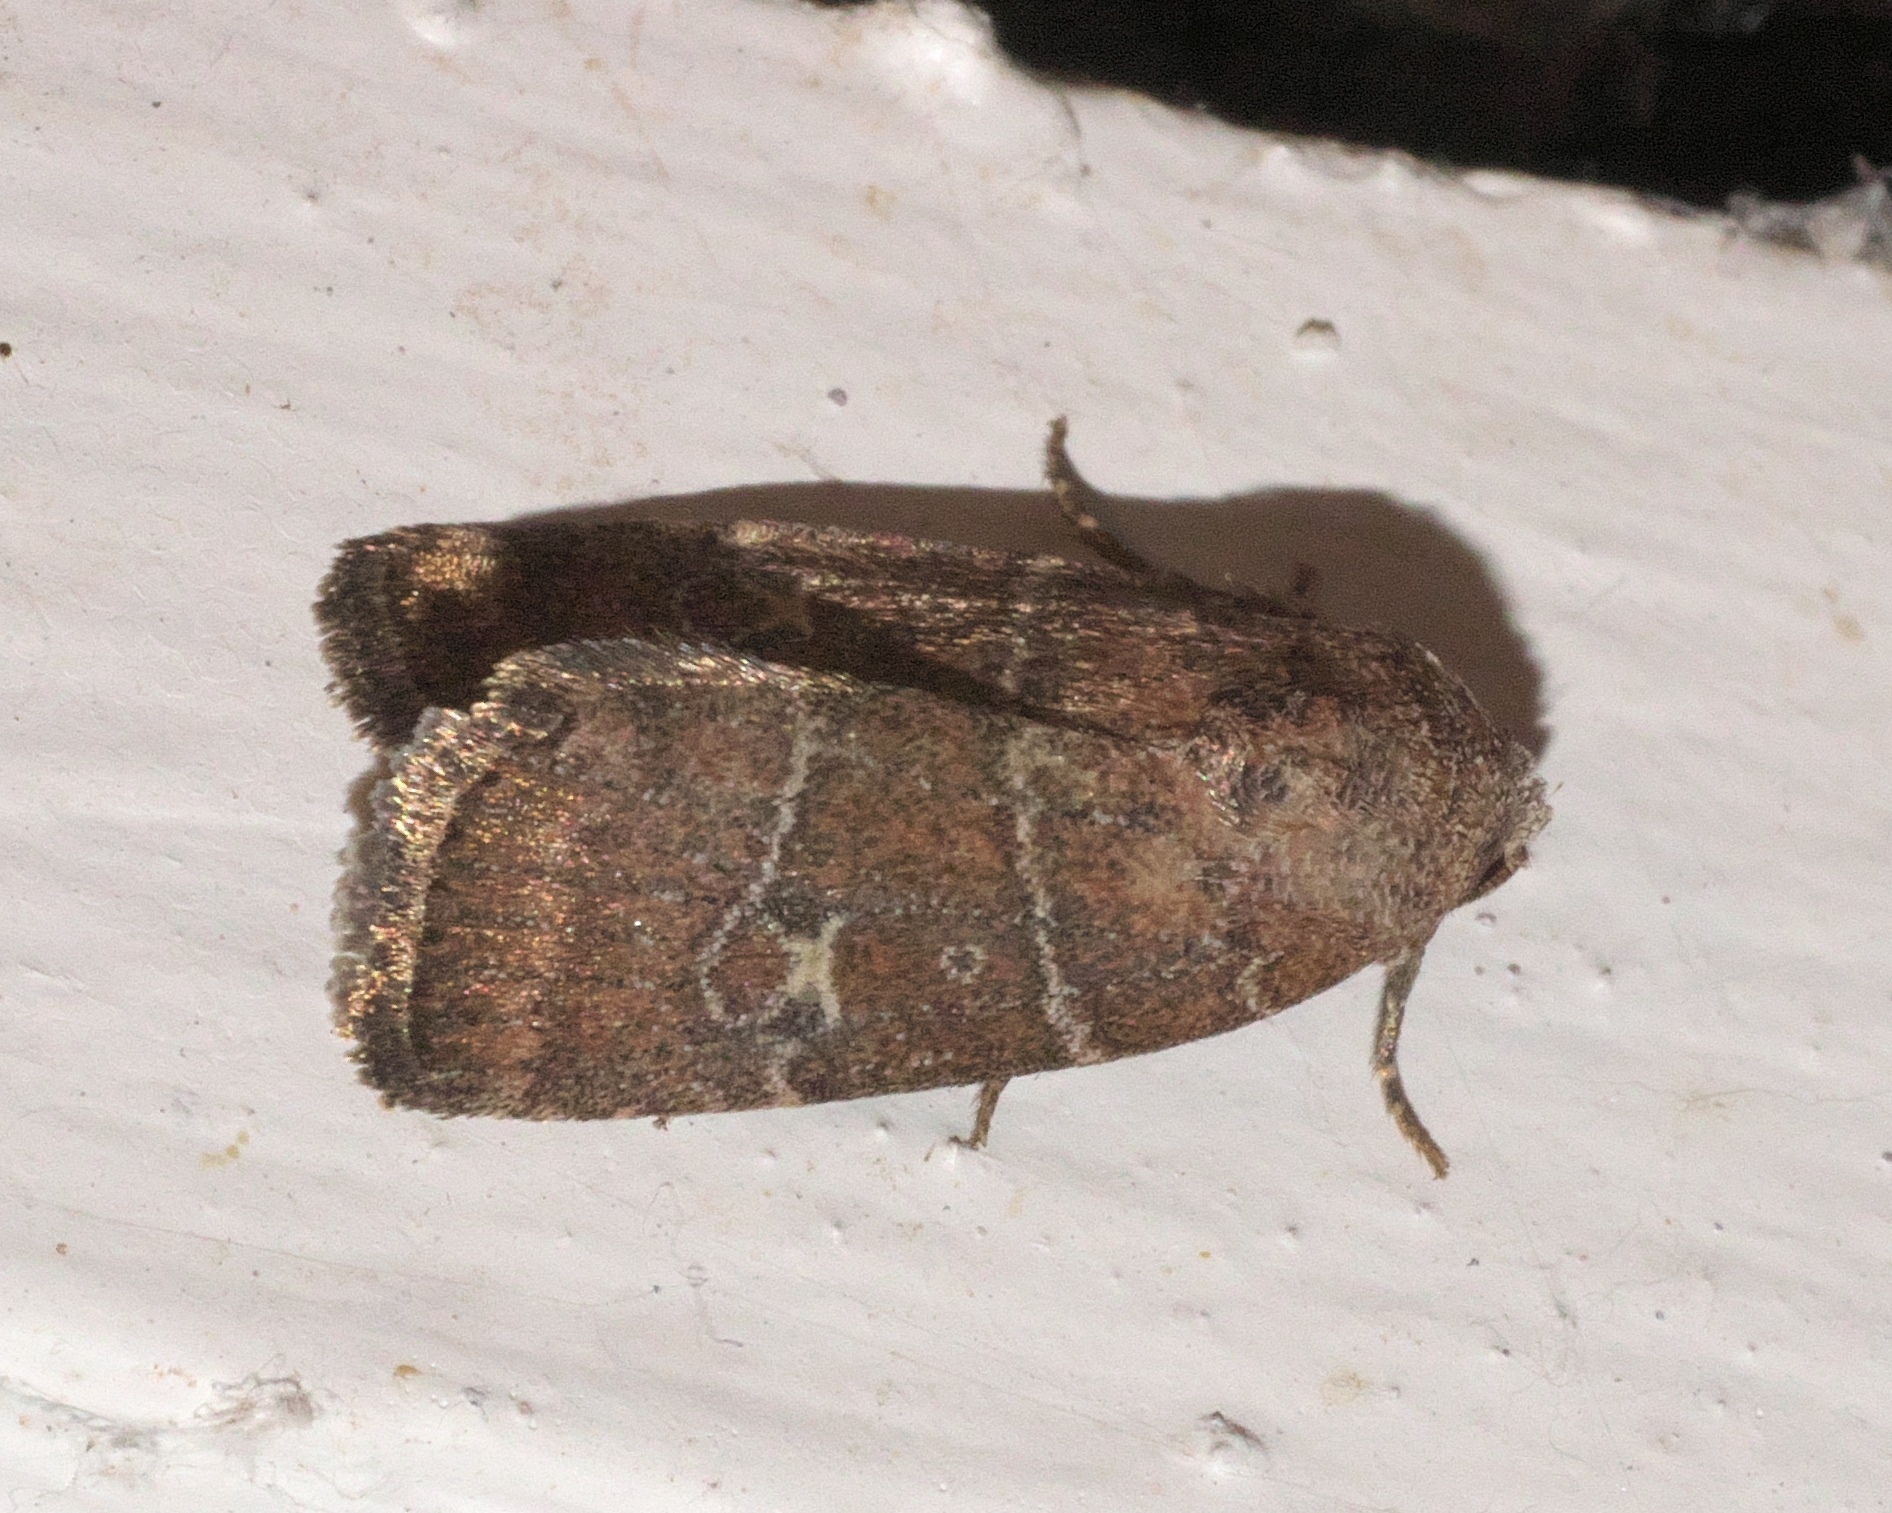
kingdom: Animalia
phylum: Arthropoda
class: Insecta
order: Lepidoptera
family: Noctuidae
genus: Elaphria
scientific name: Elaphria grata
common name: Grateful midget moth
